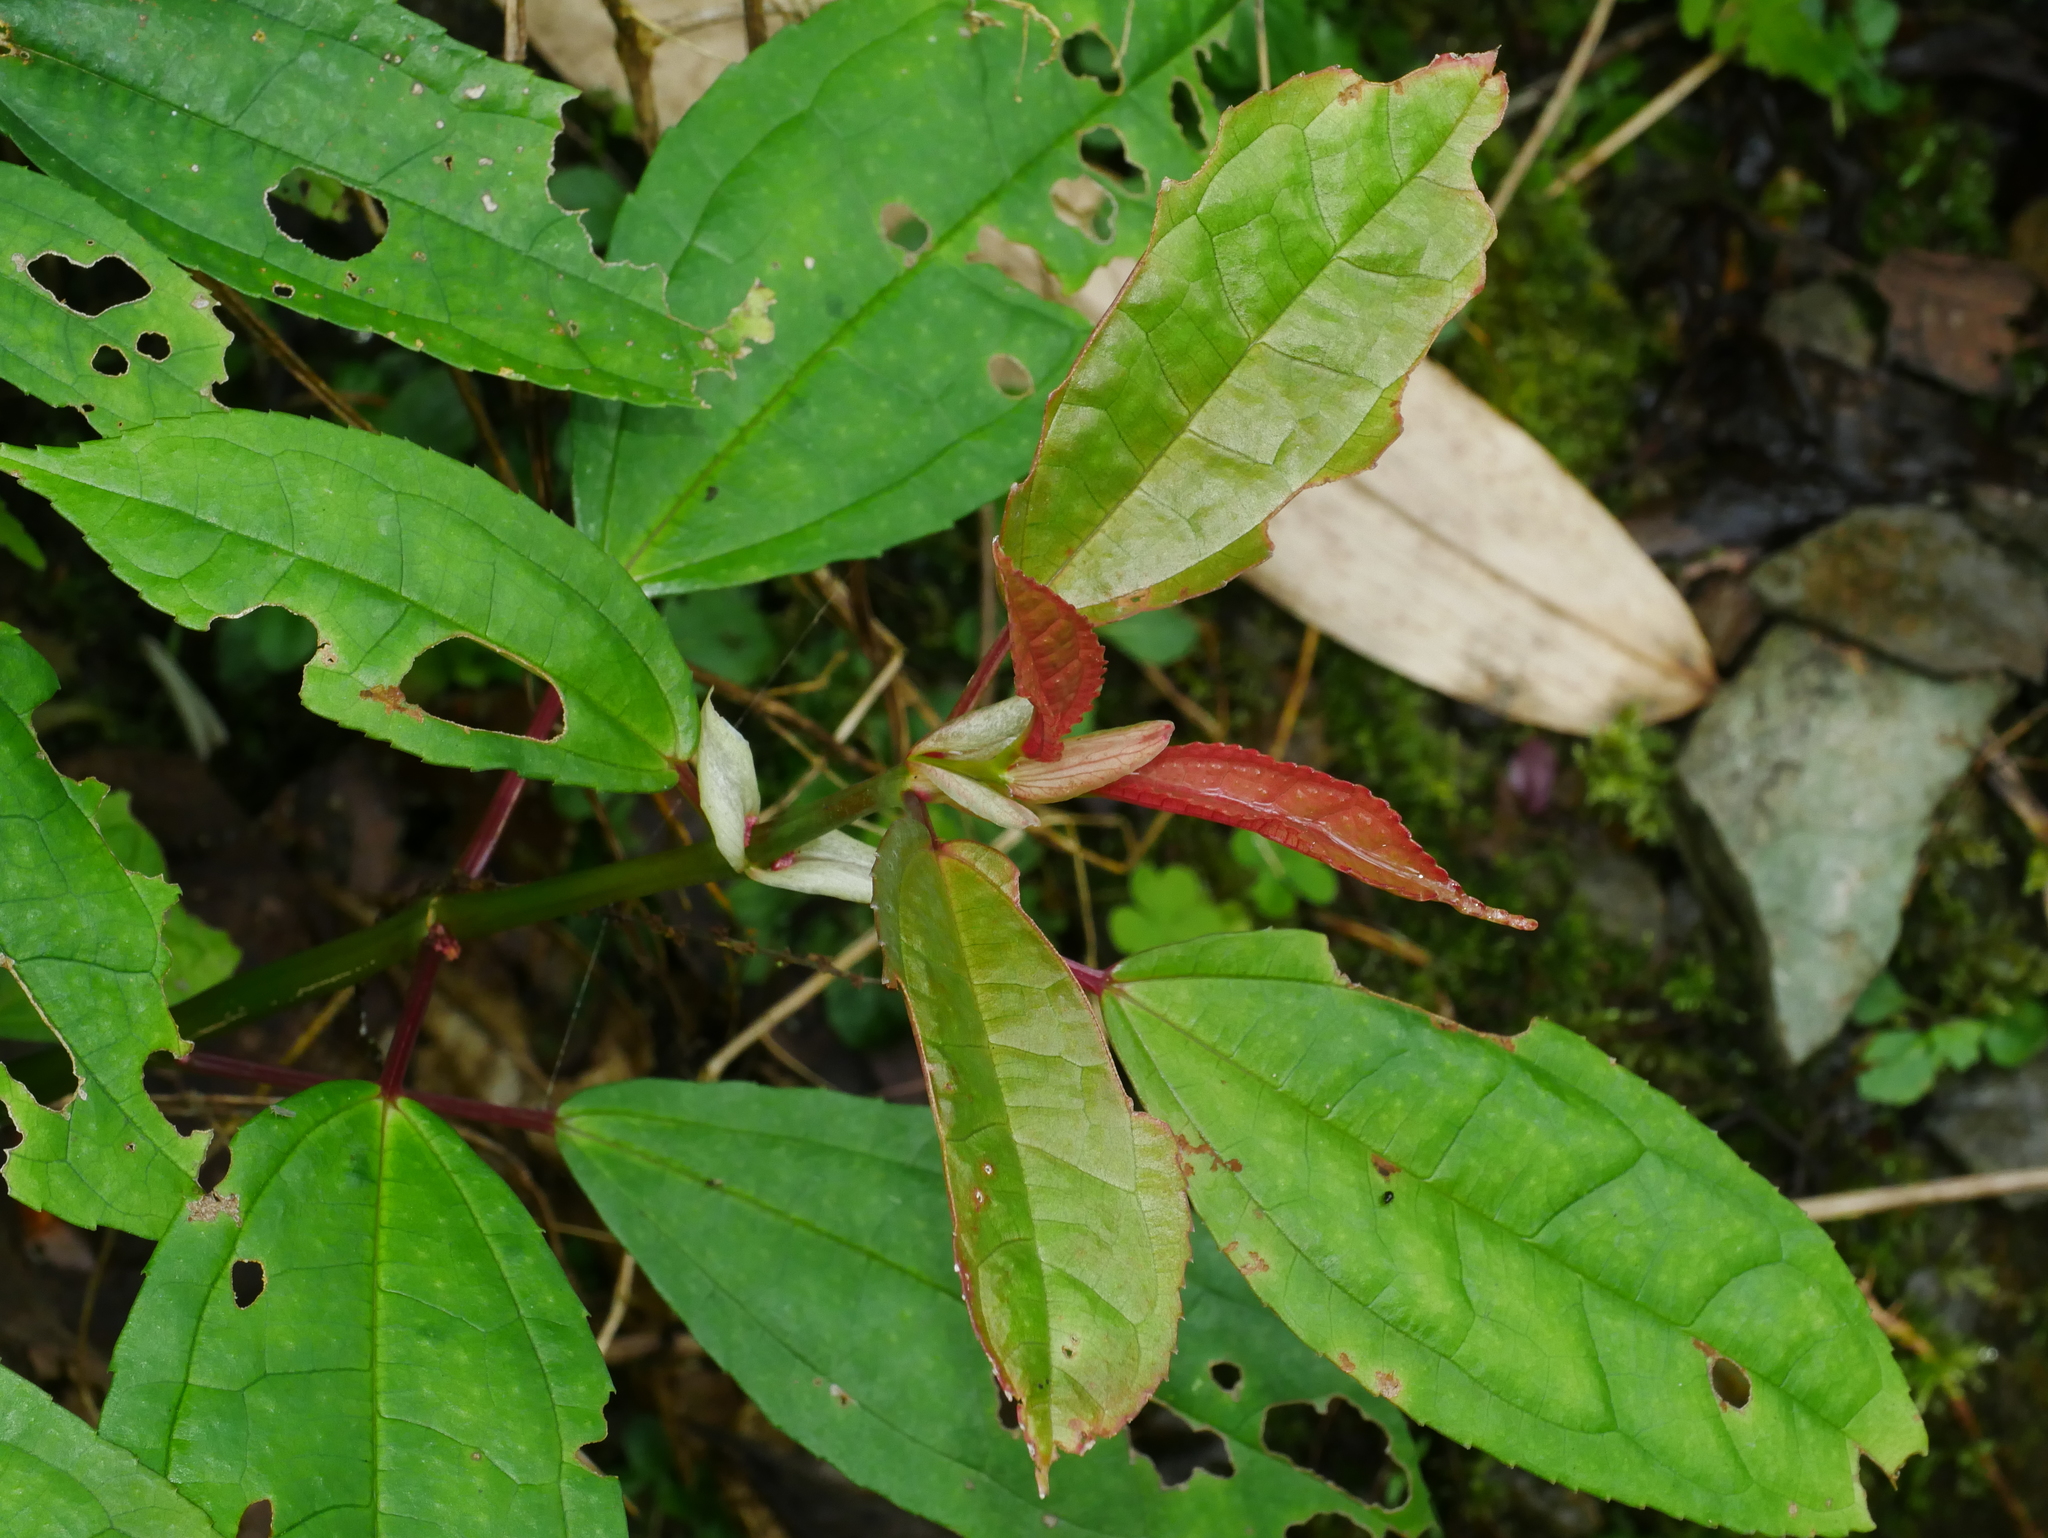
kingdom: Plantae
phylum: Tracheophyta
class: Magnoliopsida
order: Rosales
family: Urticaceae
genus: Pilea
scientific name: Pilea funkikensis
